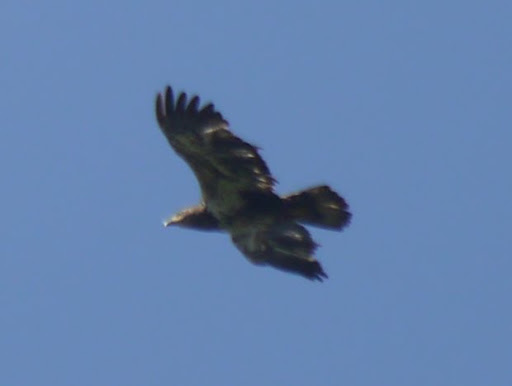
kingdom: Animalia
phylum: Chordata
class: Aves
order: Accipitriformes
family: Accipitridae
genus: Haliaeetus
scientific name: Haliaeetus leucocephalus
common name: Bald eagle
